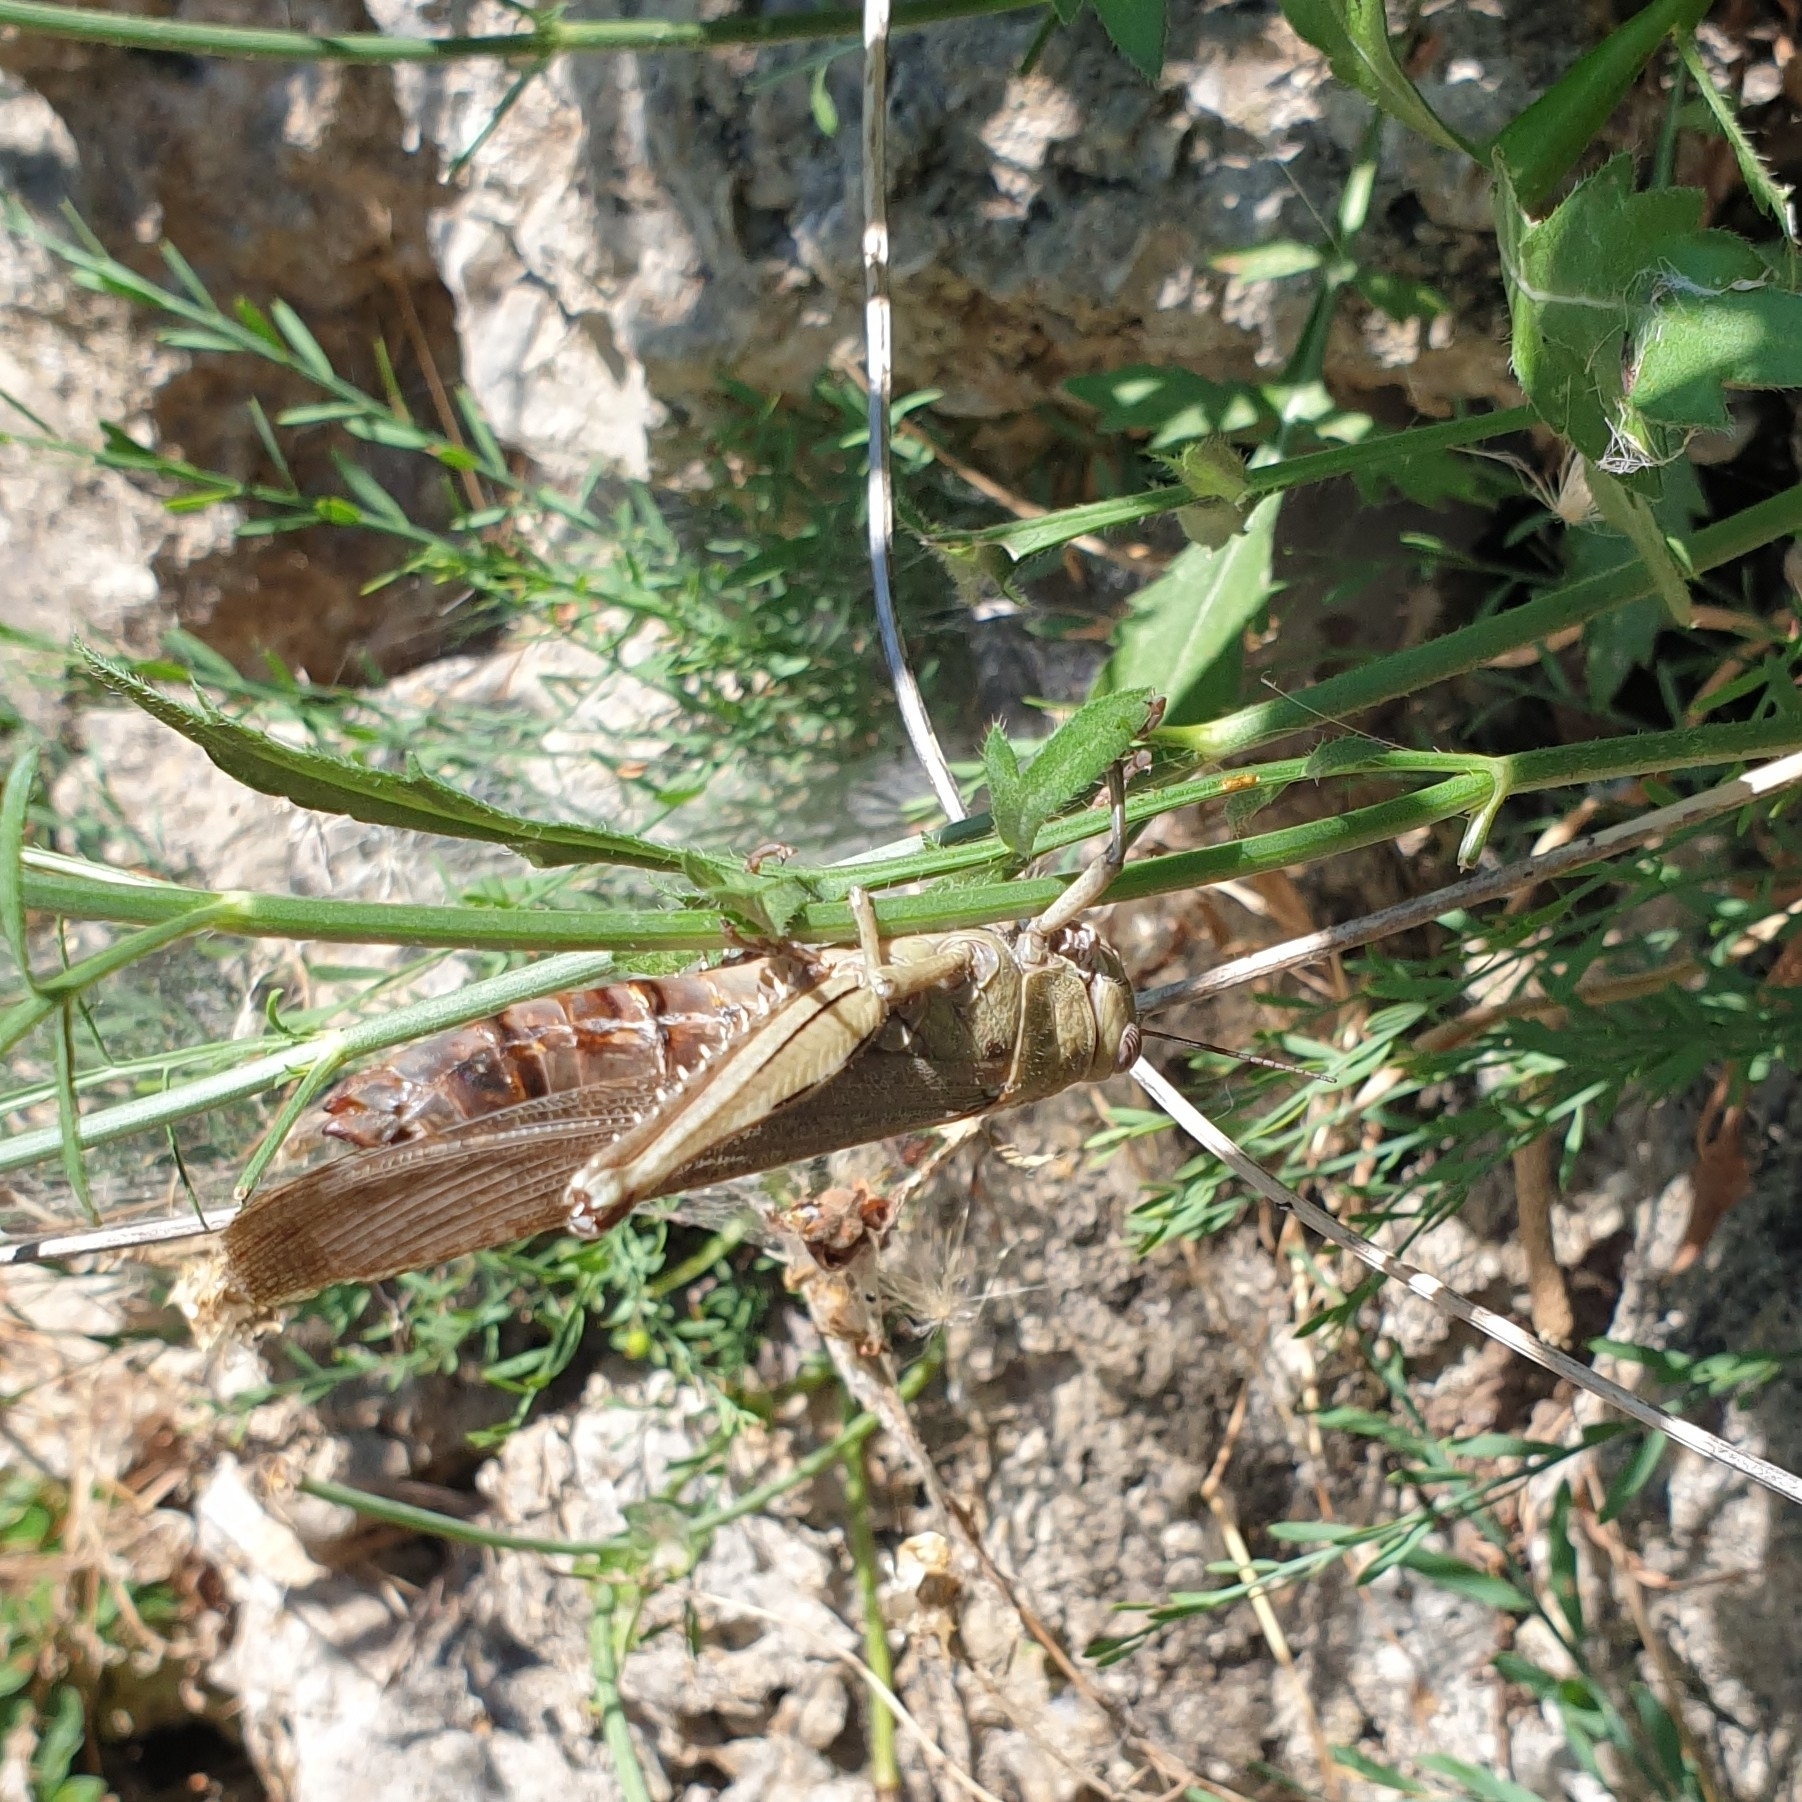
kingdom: Animalia
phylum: Arthropoda
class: Insecta
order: Orthoptera
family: Acrididae
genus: Anacridium
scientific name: Anacridium aegyptium
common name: Egyptian grasshopper
